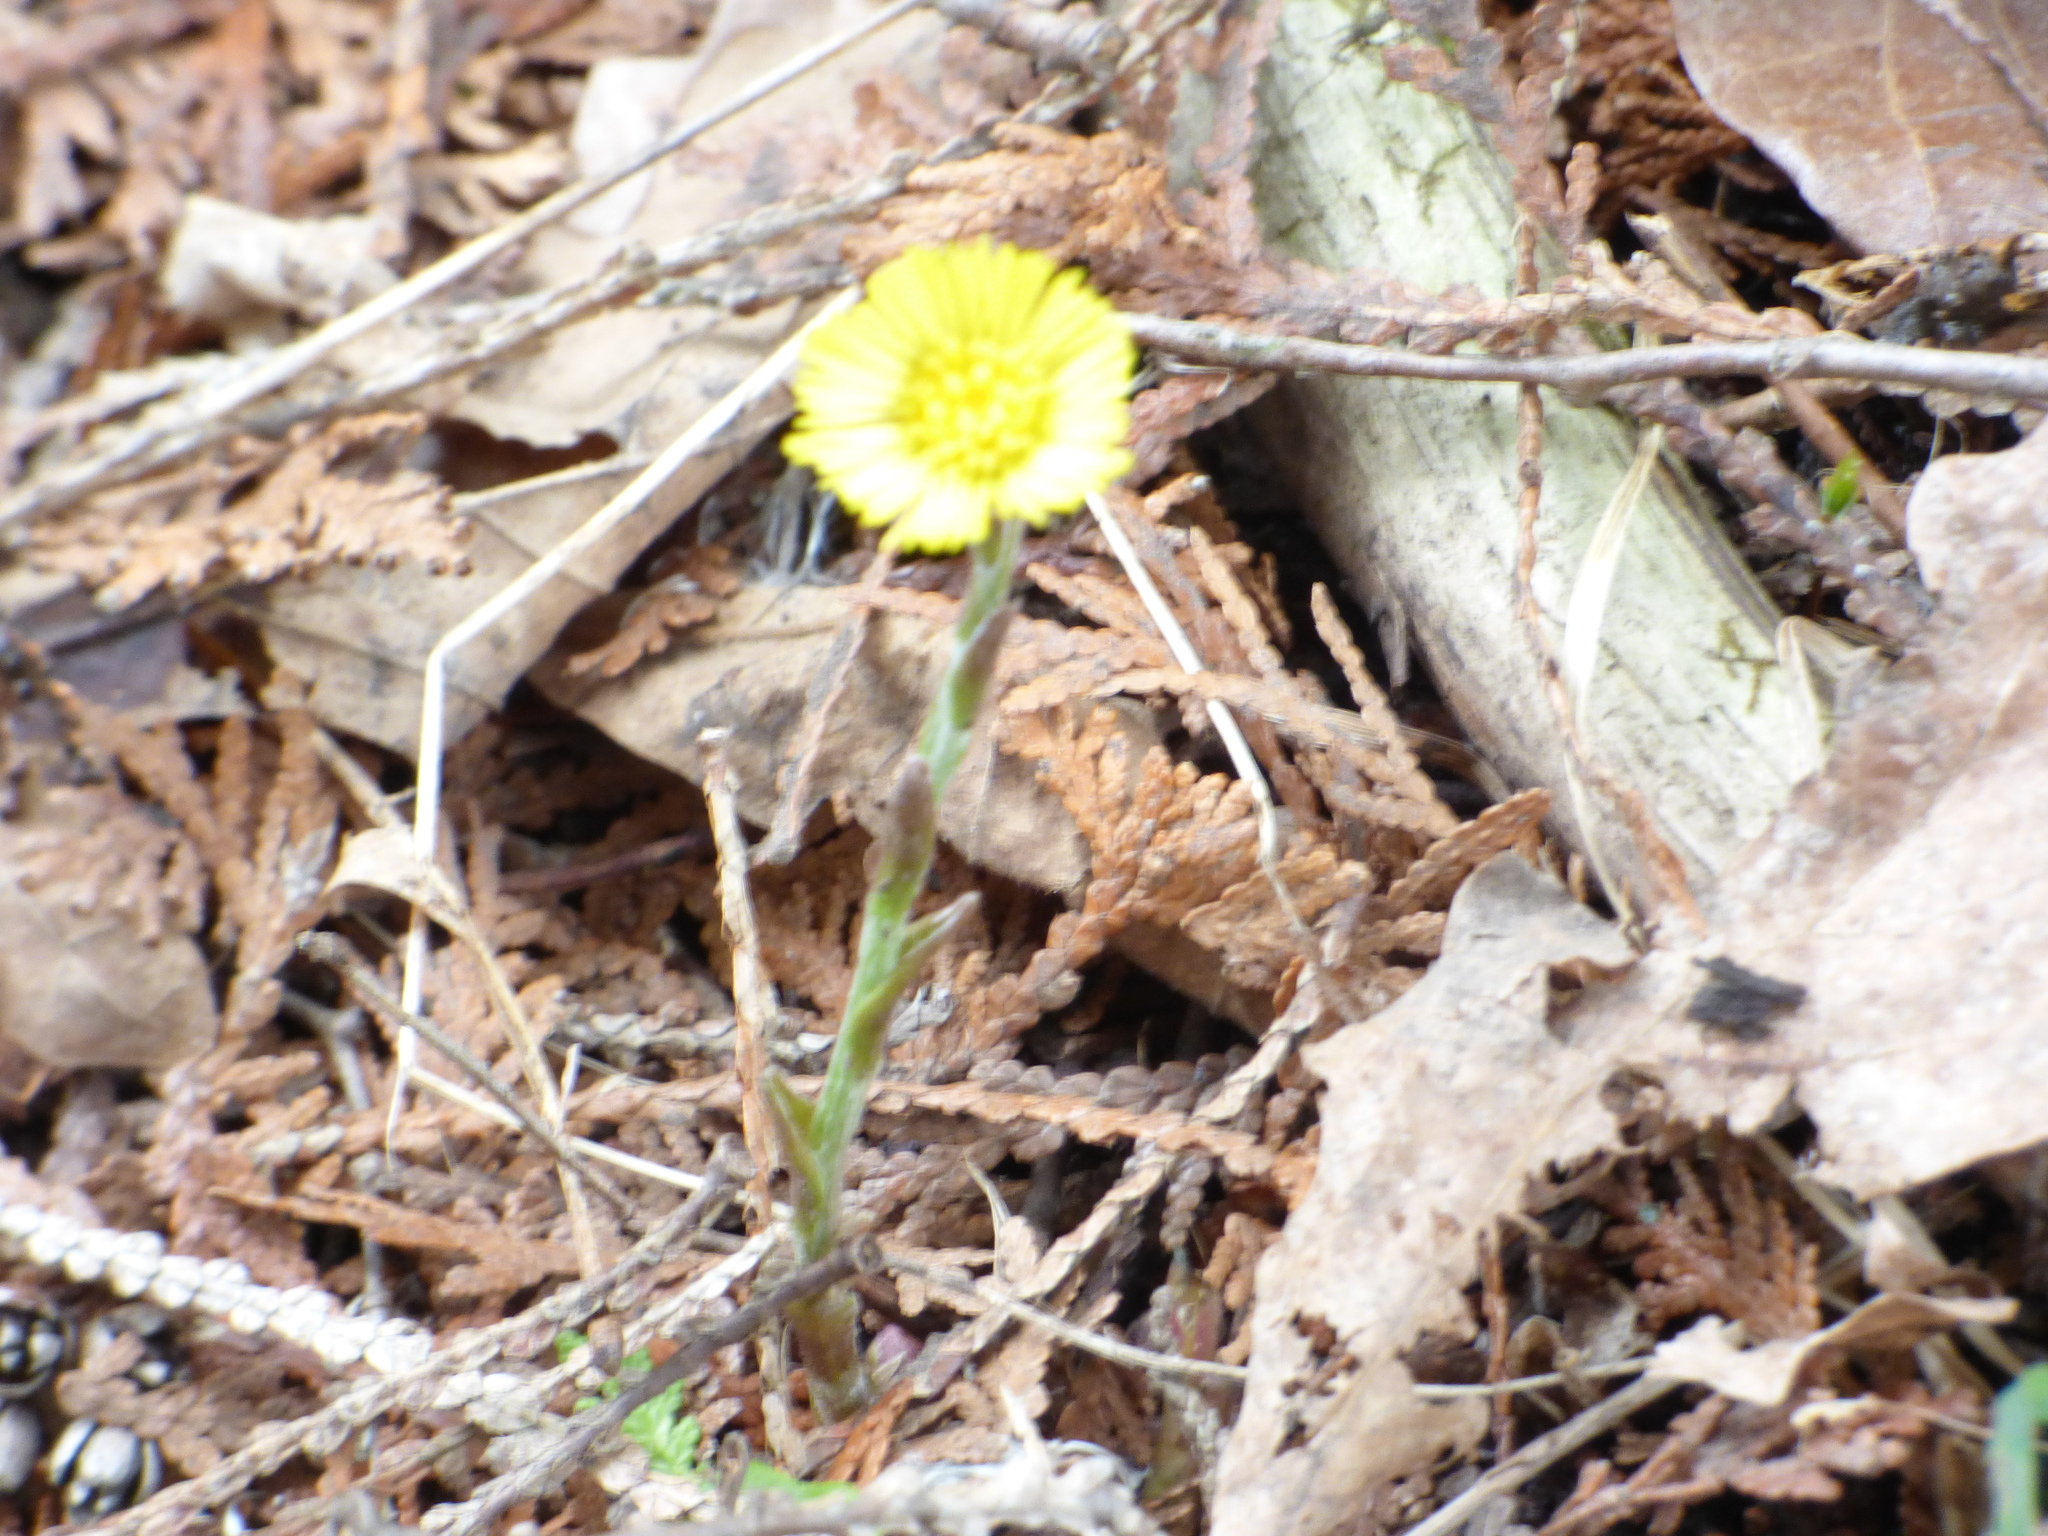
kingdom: Plantae
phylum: Tracheophyta
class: Magnoliopsida
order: Asterales
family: Asteraceae
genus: Tussilago
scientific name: Tussilago farfara
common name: Coltsfoot
